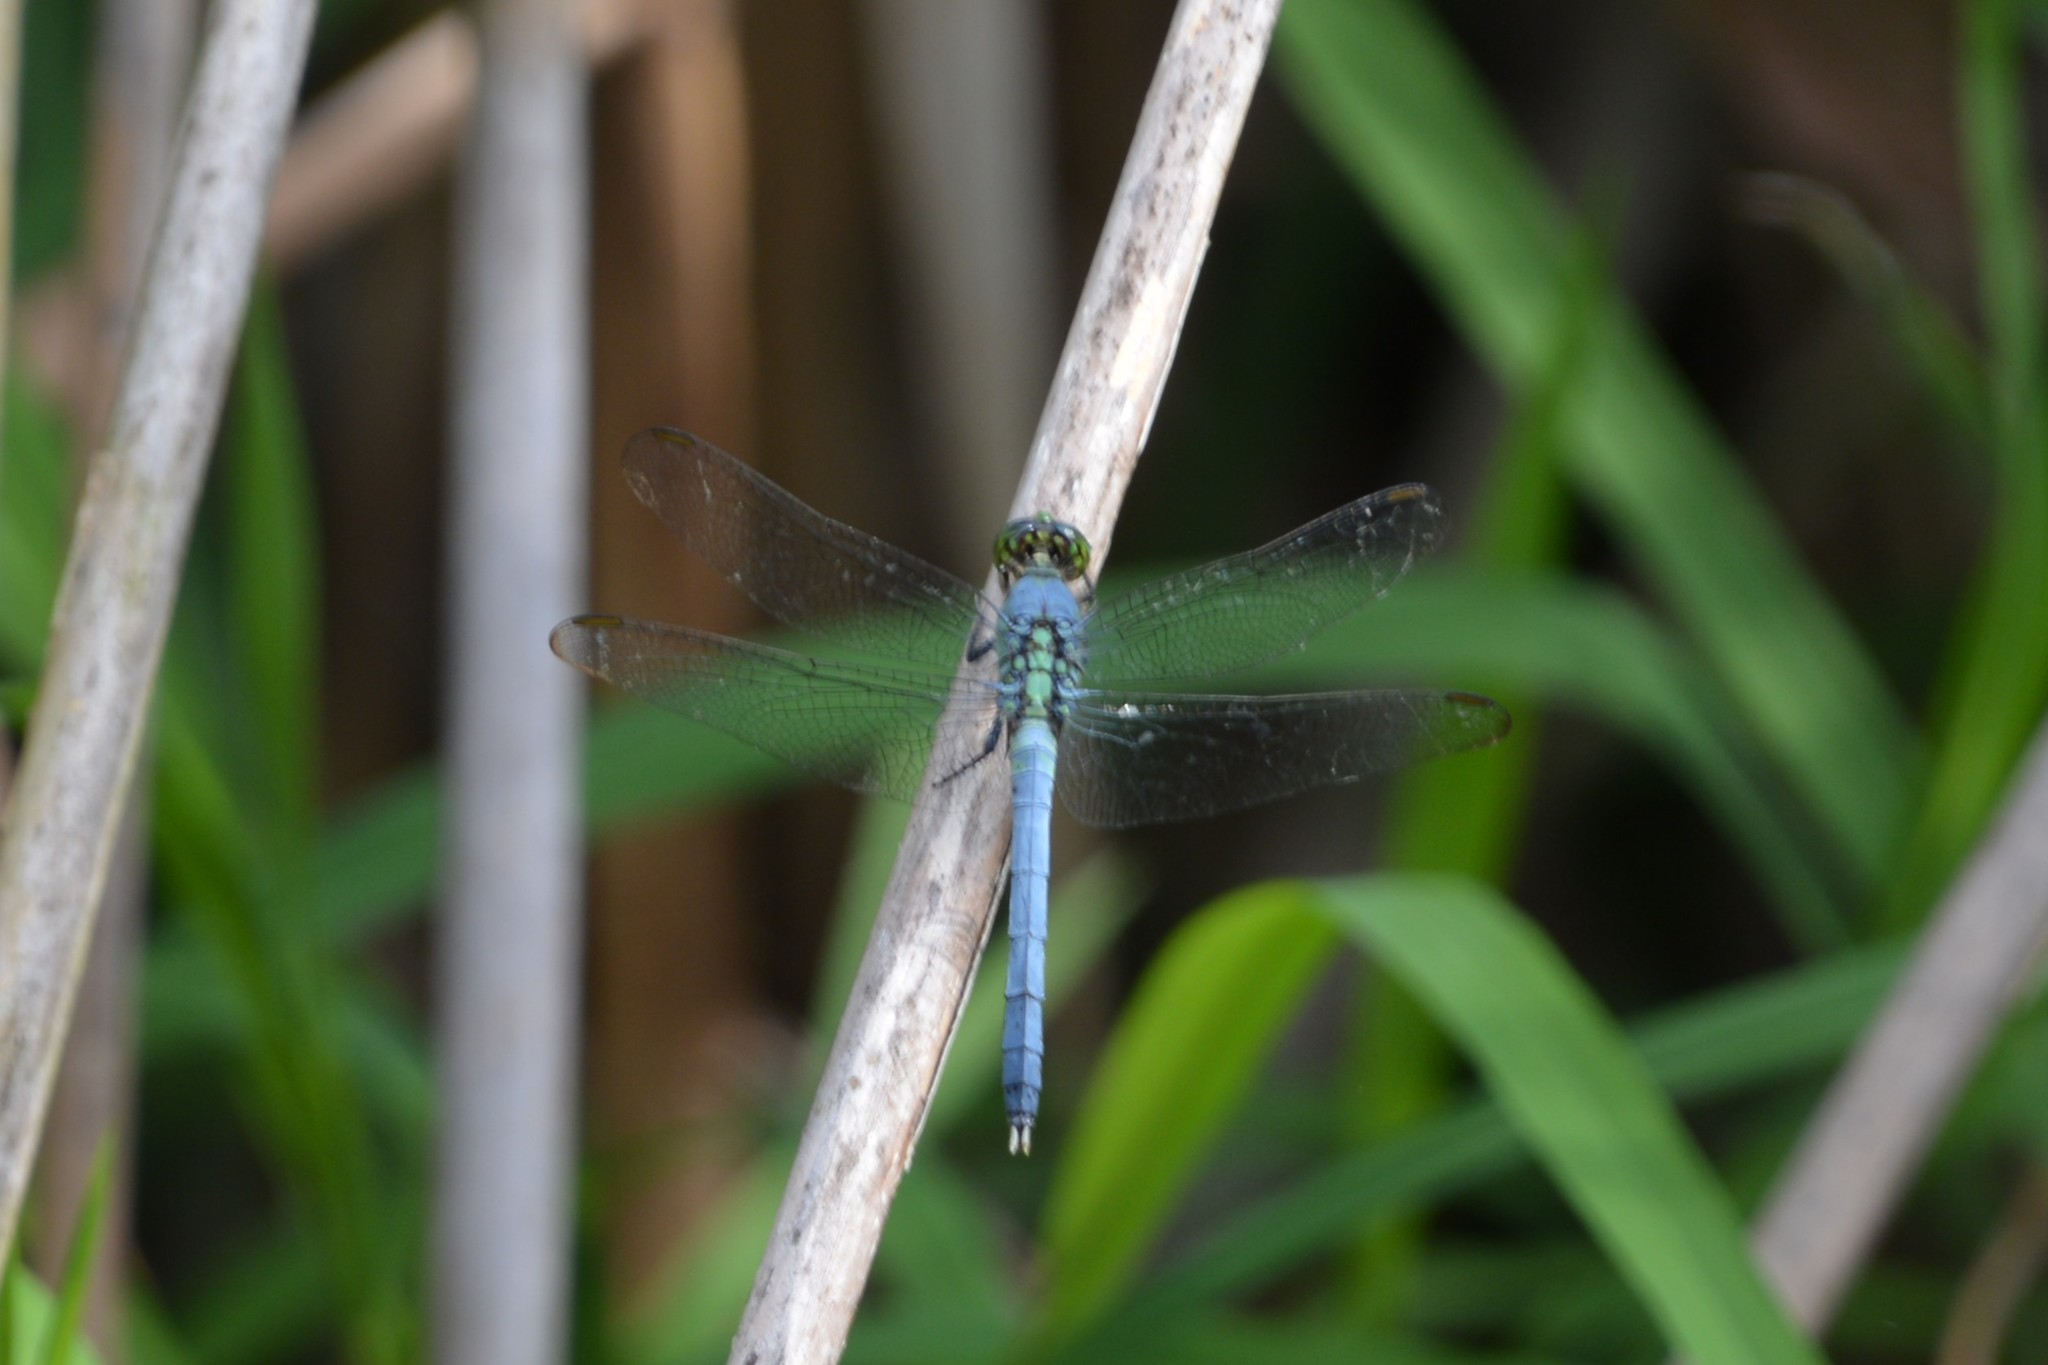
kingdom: Animalia
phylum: Arthropoda
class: Insecta
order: Odonata
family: Libellulidae
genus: Erythemis
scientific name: Erythemis simplicicollis
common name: Eastern pondhawk
